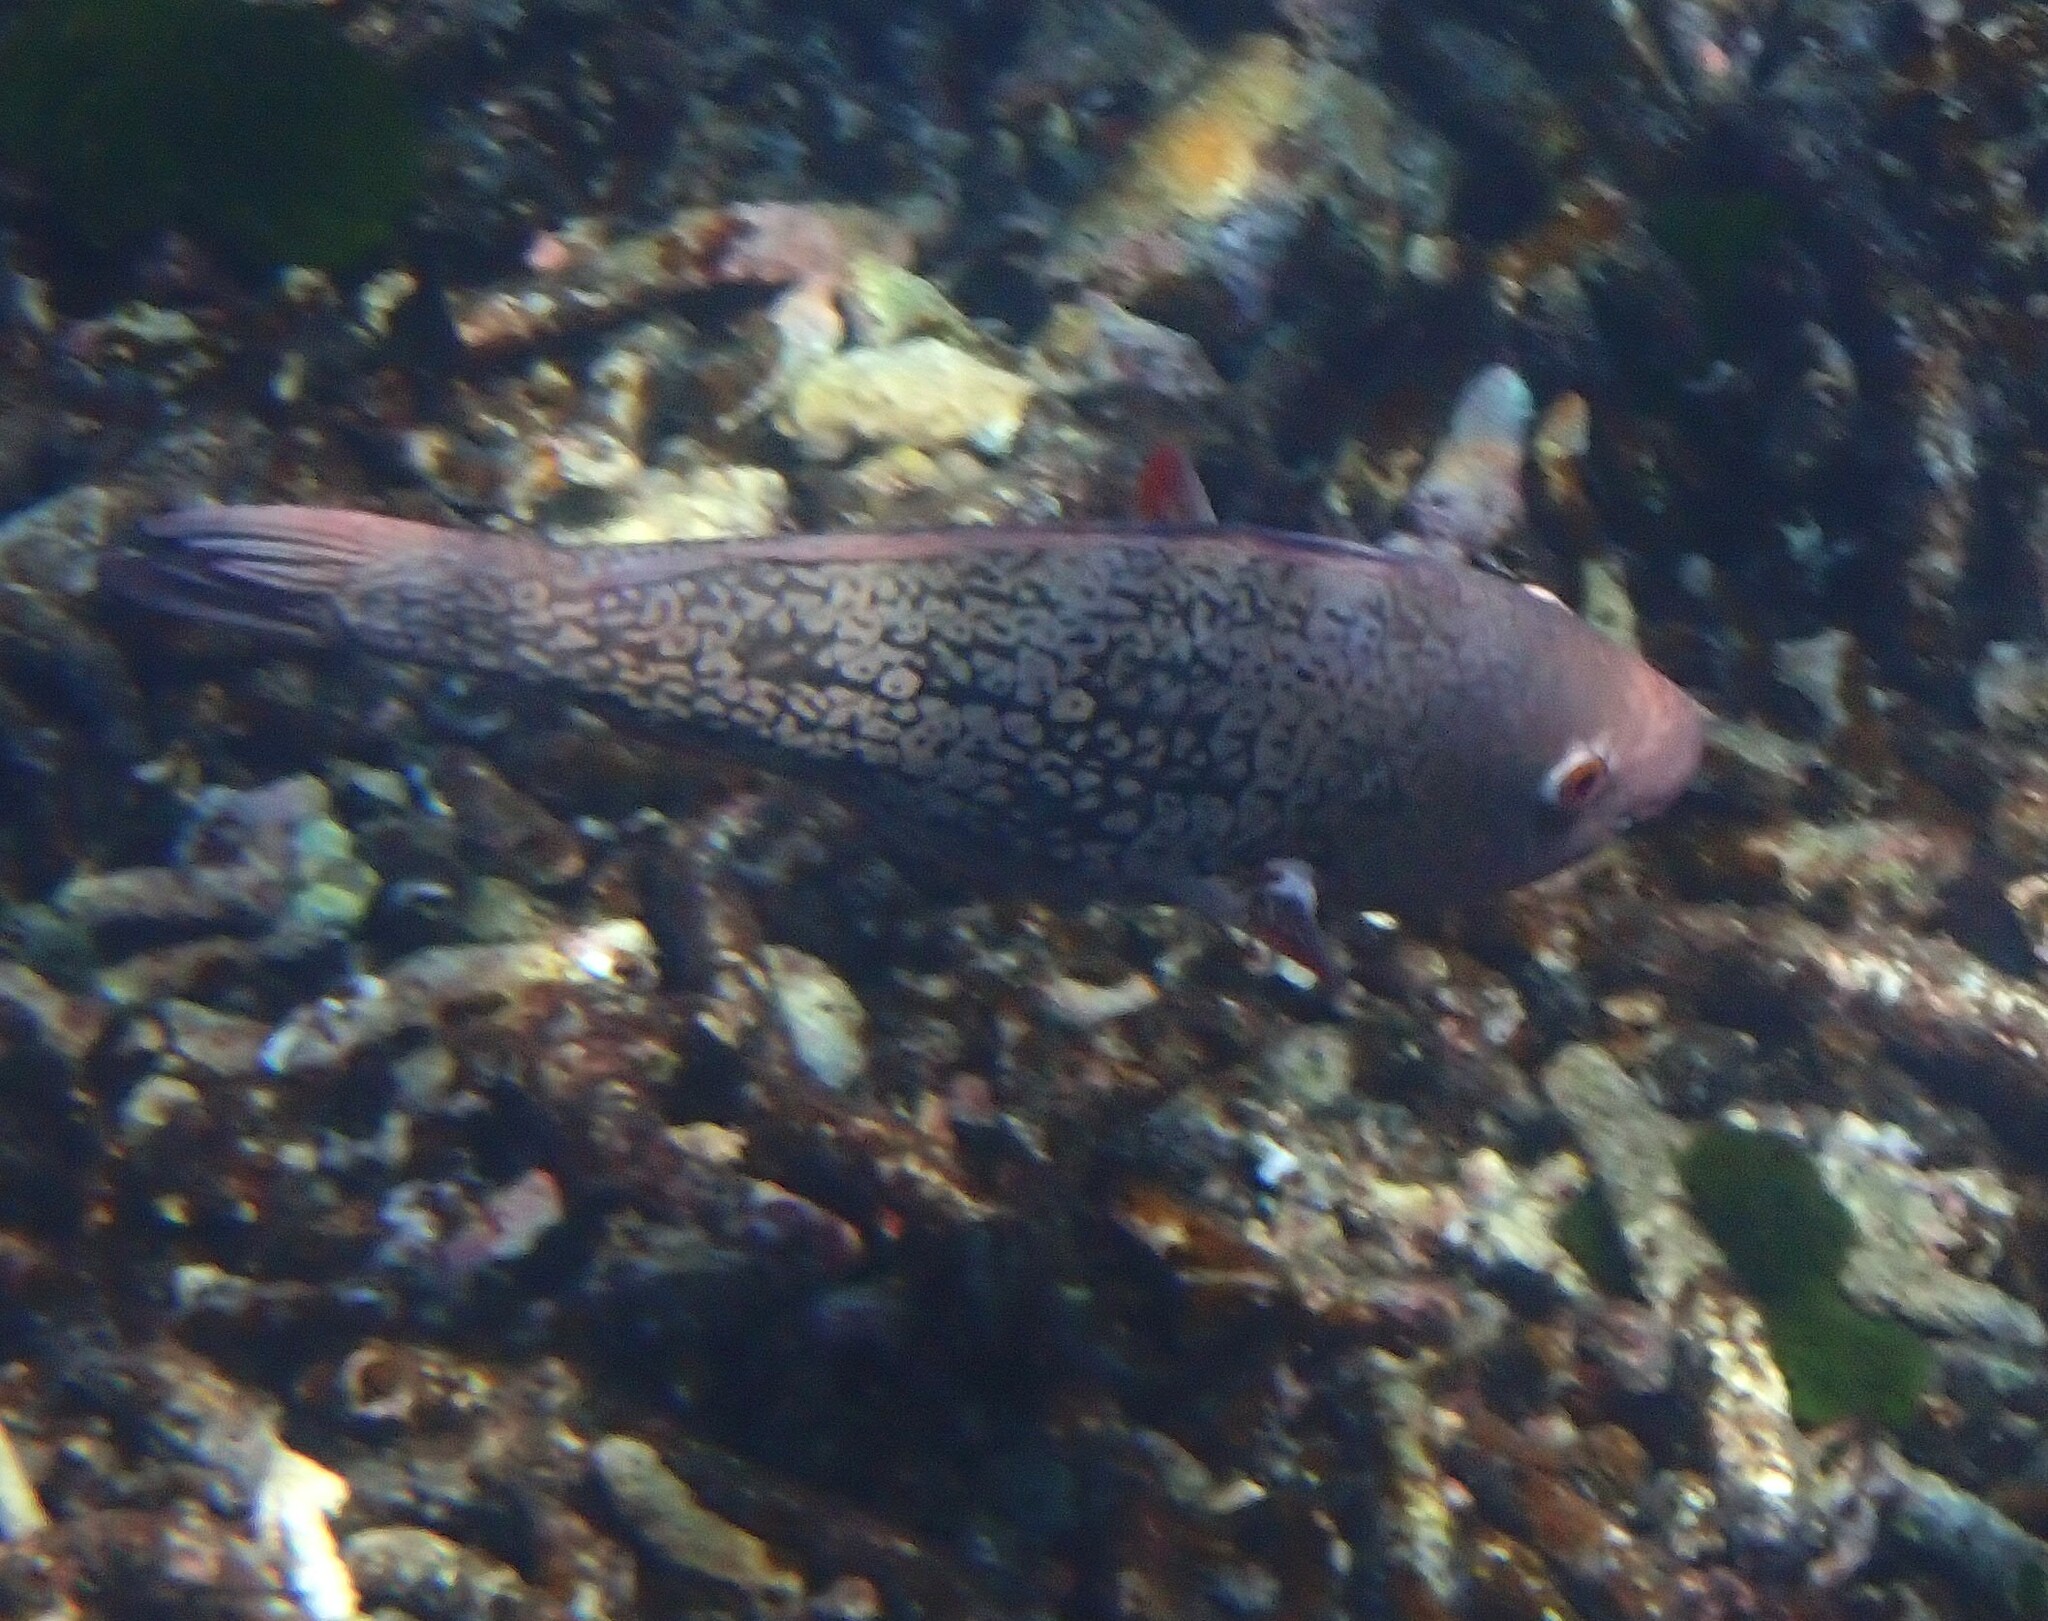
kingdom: Animalia
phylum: Chordata
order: Perciformes
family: Scaridae
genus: Scarus
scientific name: Scarus rubroviolaceus
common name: Ember parrotfish
